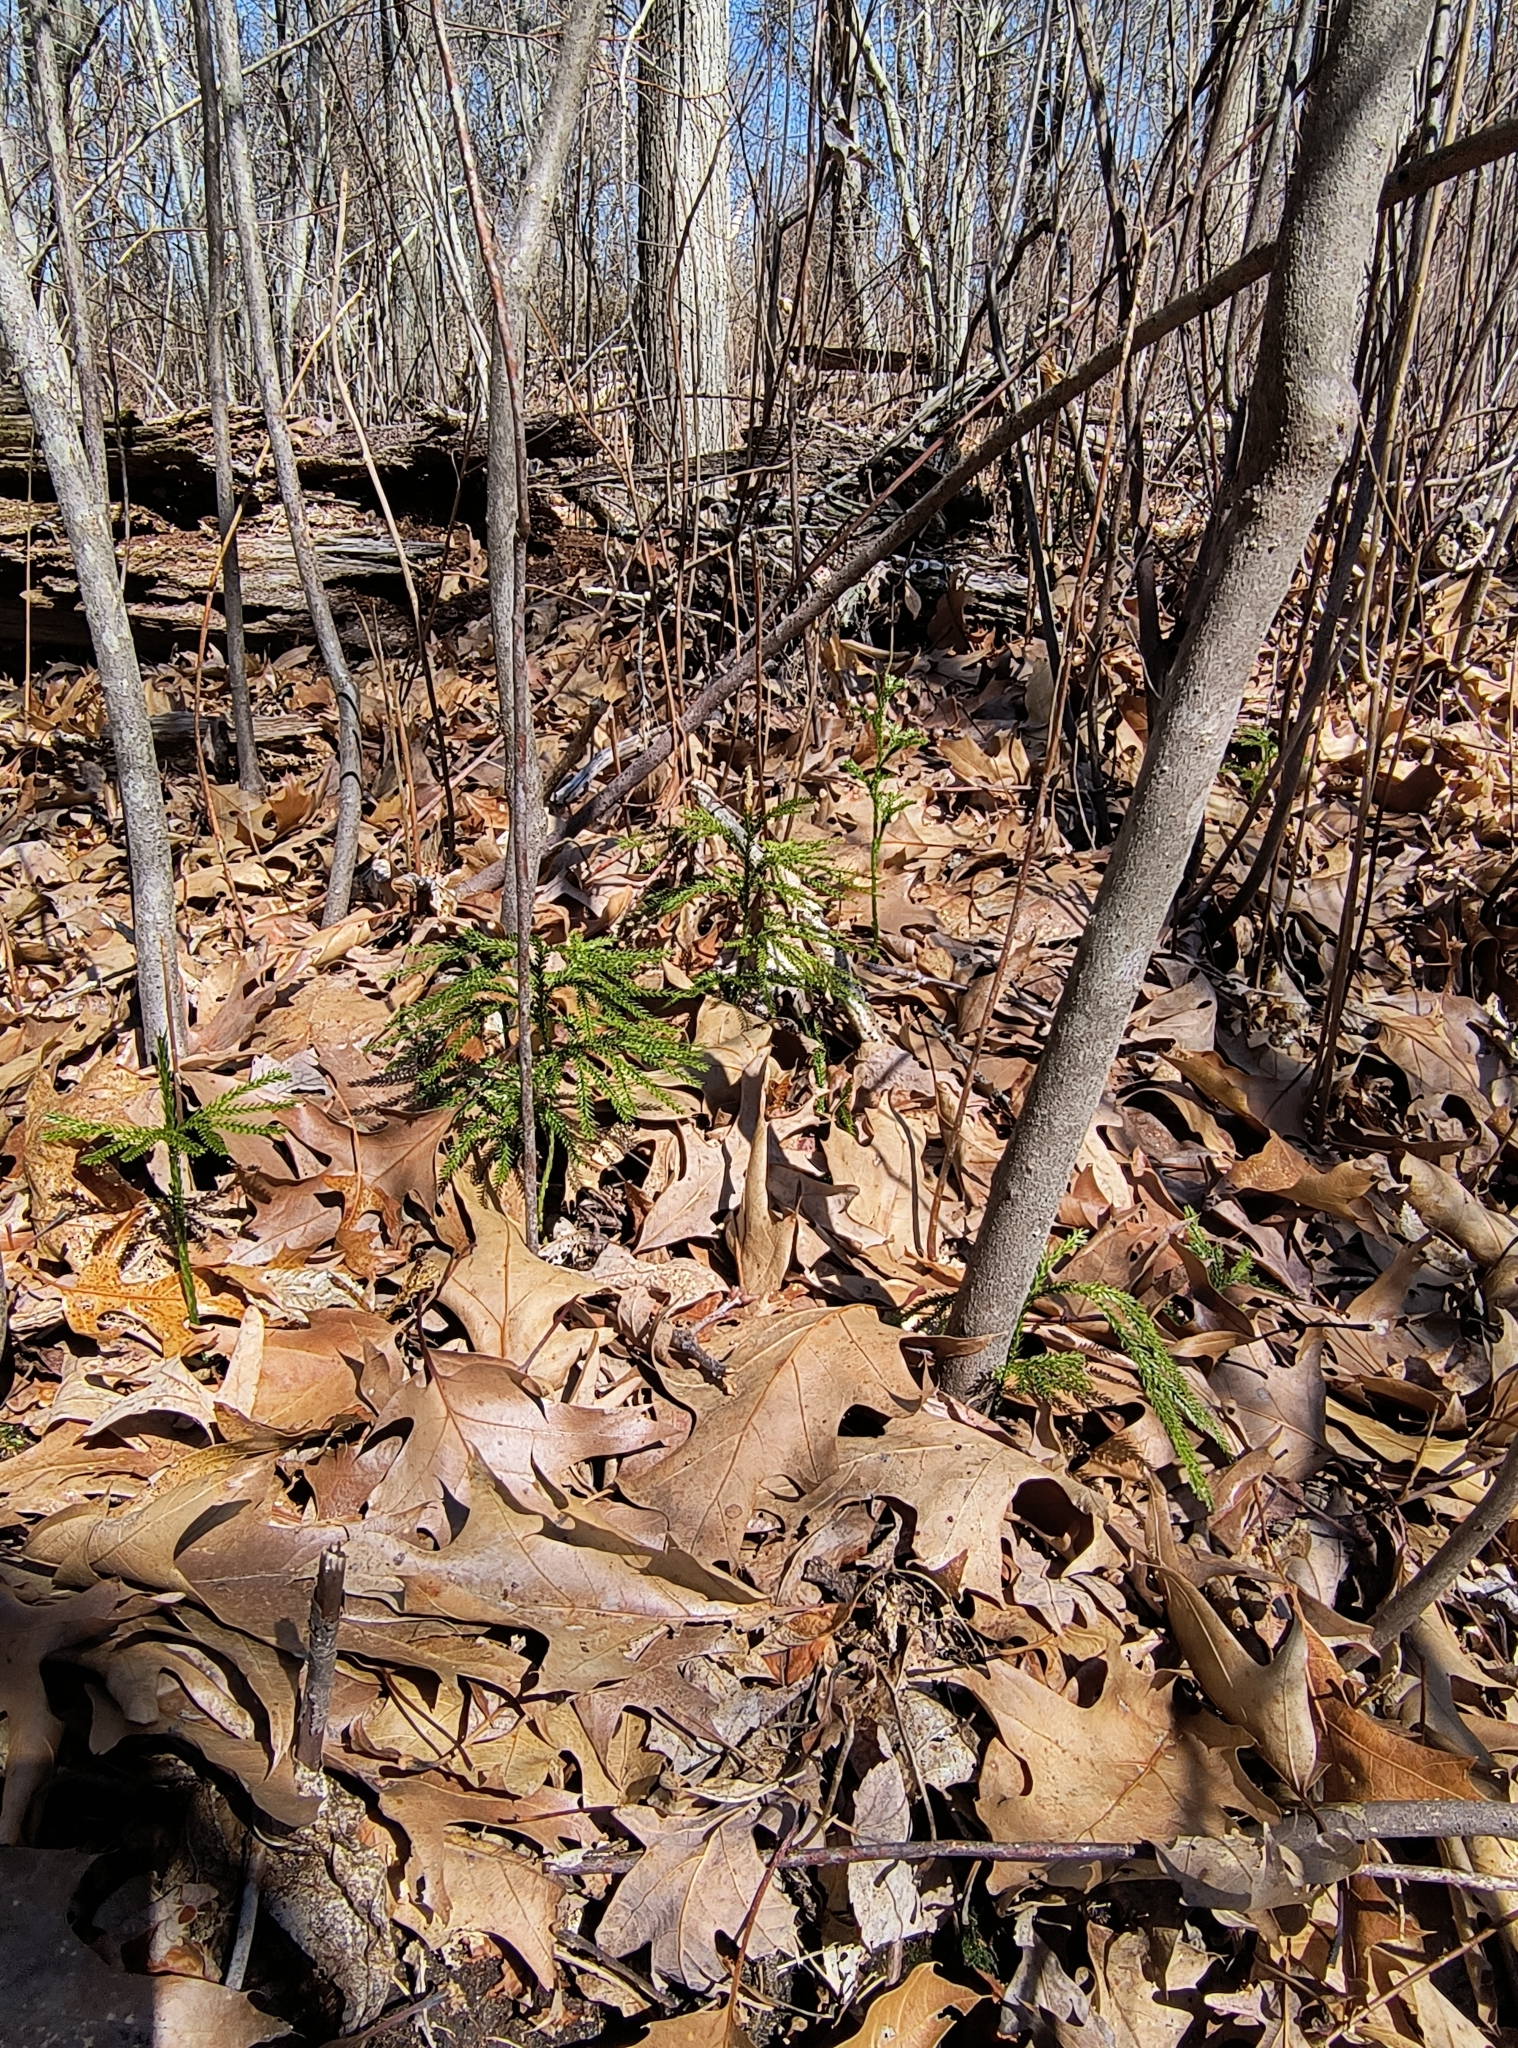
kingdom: Plantae
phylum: Tracheophyta
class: Lycopodiopsida
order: Lycopodiales
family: Lycopodiaceae
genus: Dendrolycopodium
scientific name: Dendrolycopodium obscurum
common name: Common ground-pine
